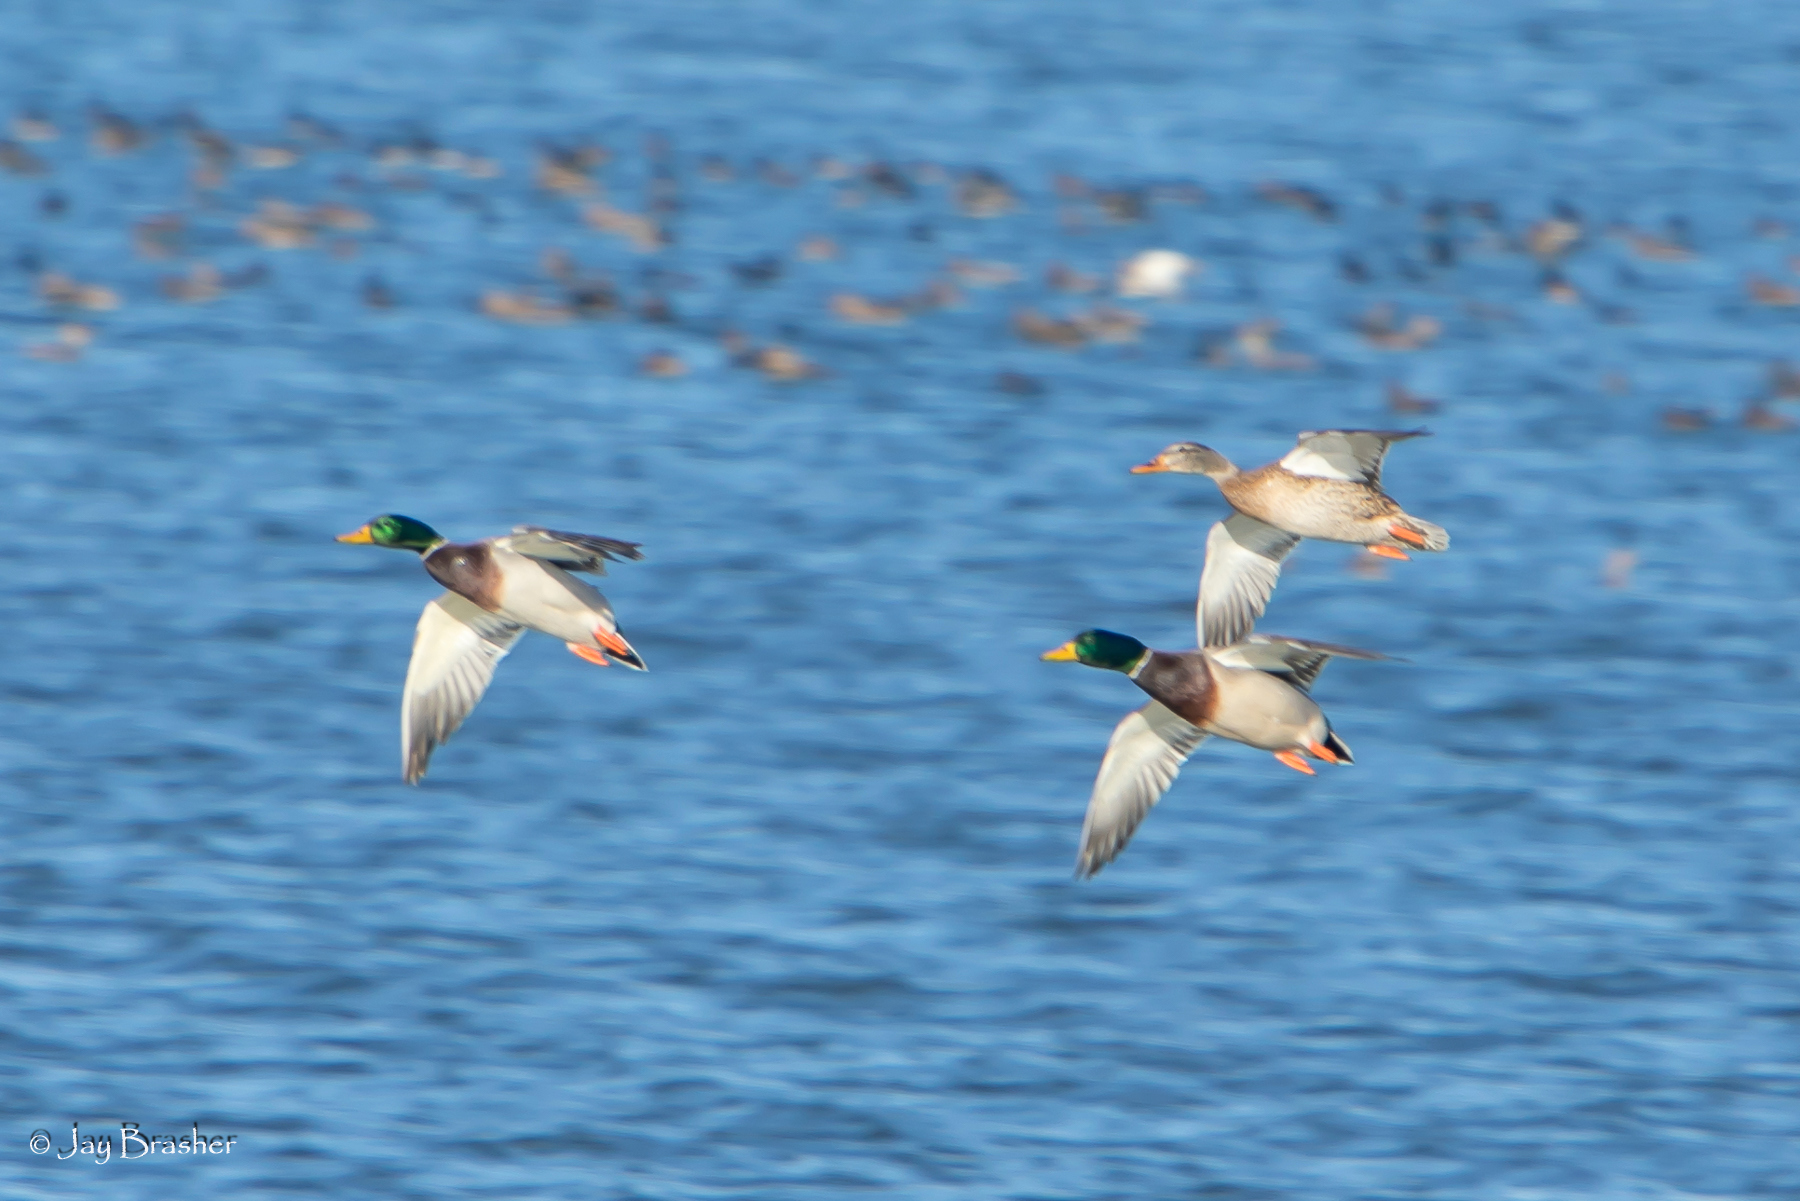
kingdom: Animalia
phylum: Chordata
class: Aves
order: Anseriformes
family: Anatidae
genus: Anas
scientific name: Anas platyrhynchos
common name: Mallard
